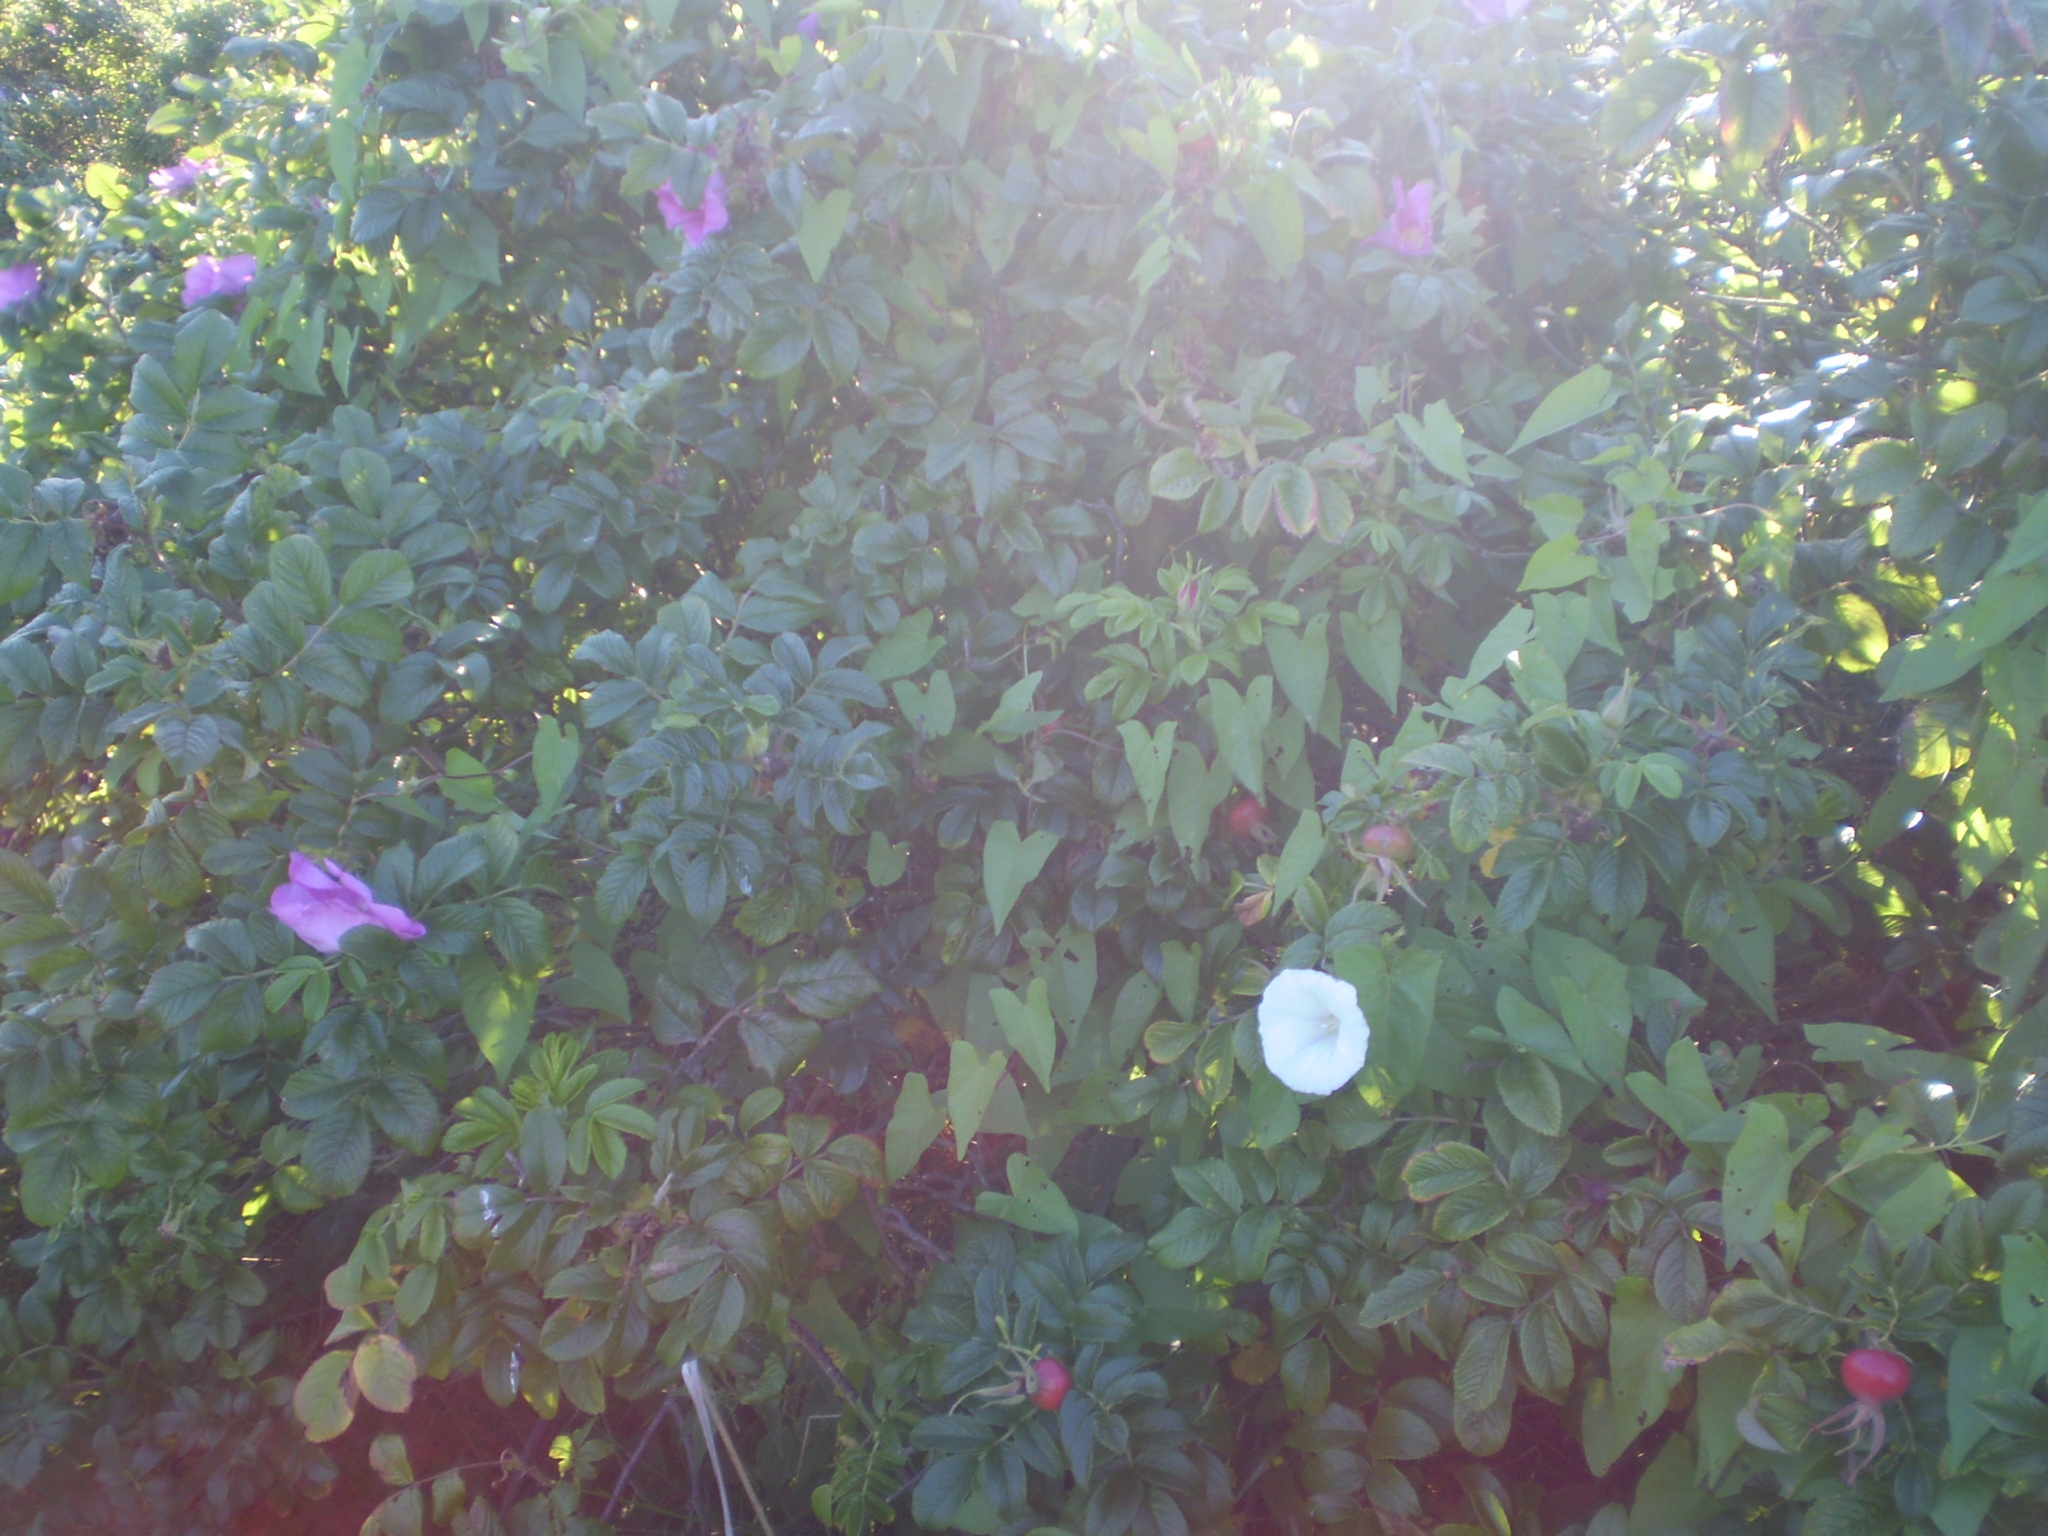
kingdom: Plantae
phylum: Tracheophyta
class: Magnoliopsida
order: Rosales
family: Rosaceae
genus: Rosa
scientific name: Rosa rugosa
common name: Japanese rose
